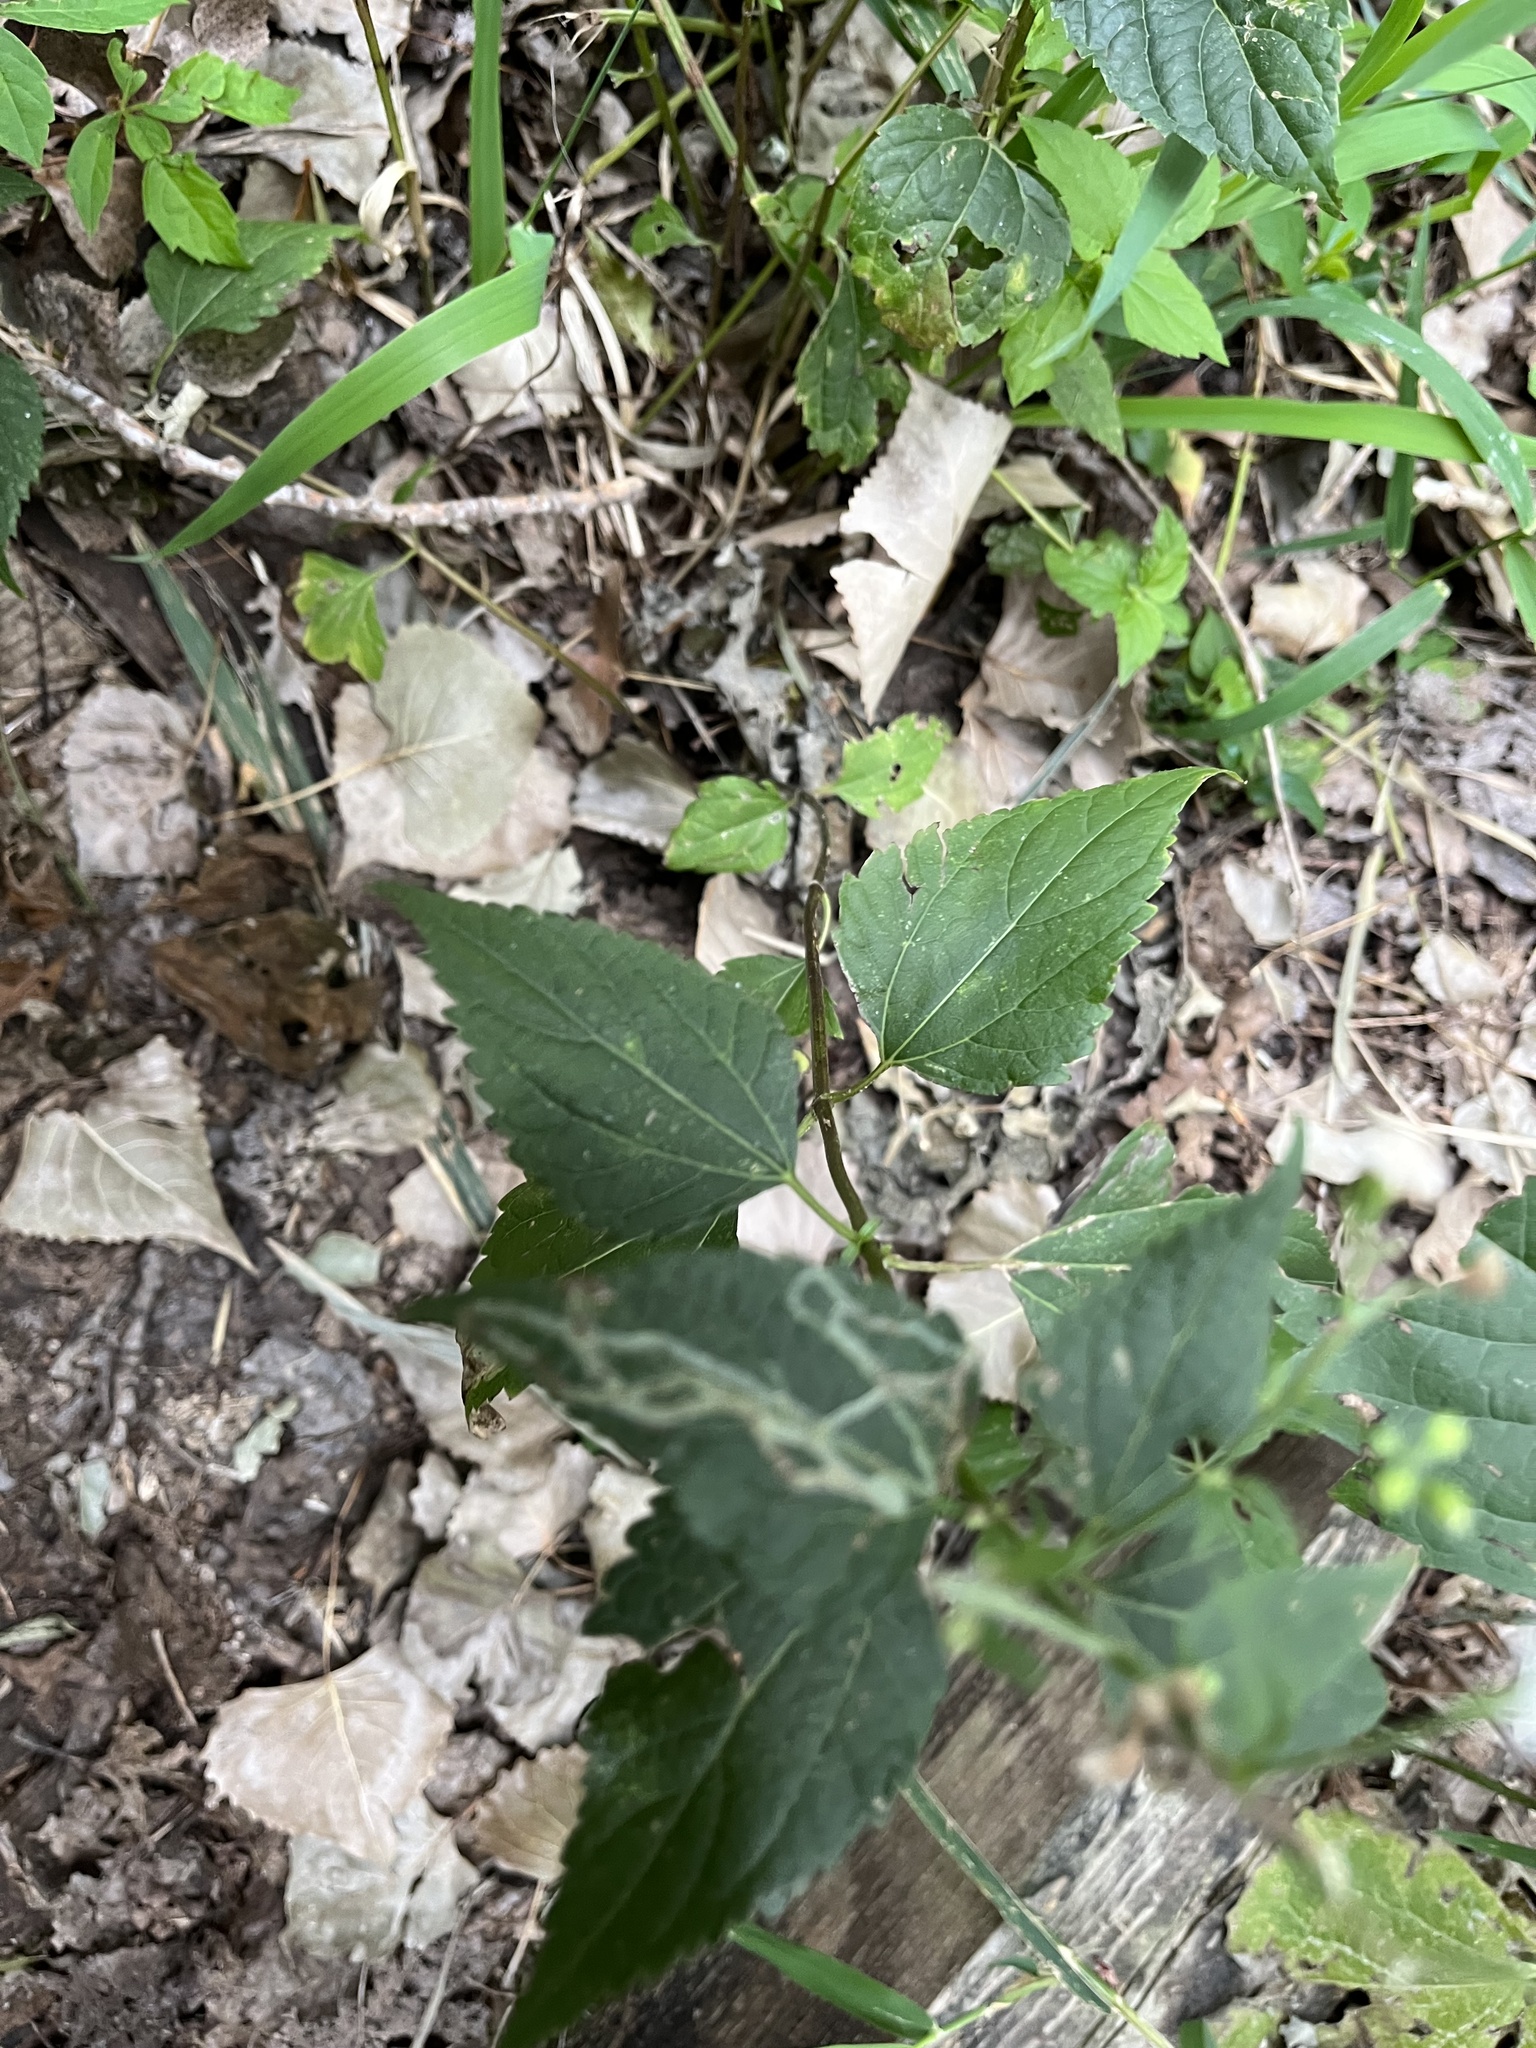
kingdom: Plantae
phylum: Tracheophyta
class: Magnoliopsida
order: Asterales
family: Asteraceae
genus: Ageratina
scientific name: Ageratina altissima
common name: White snakeroot
